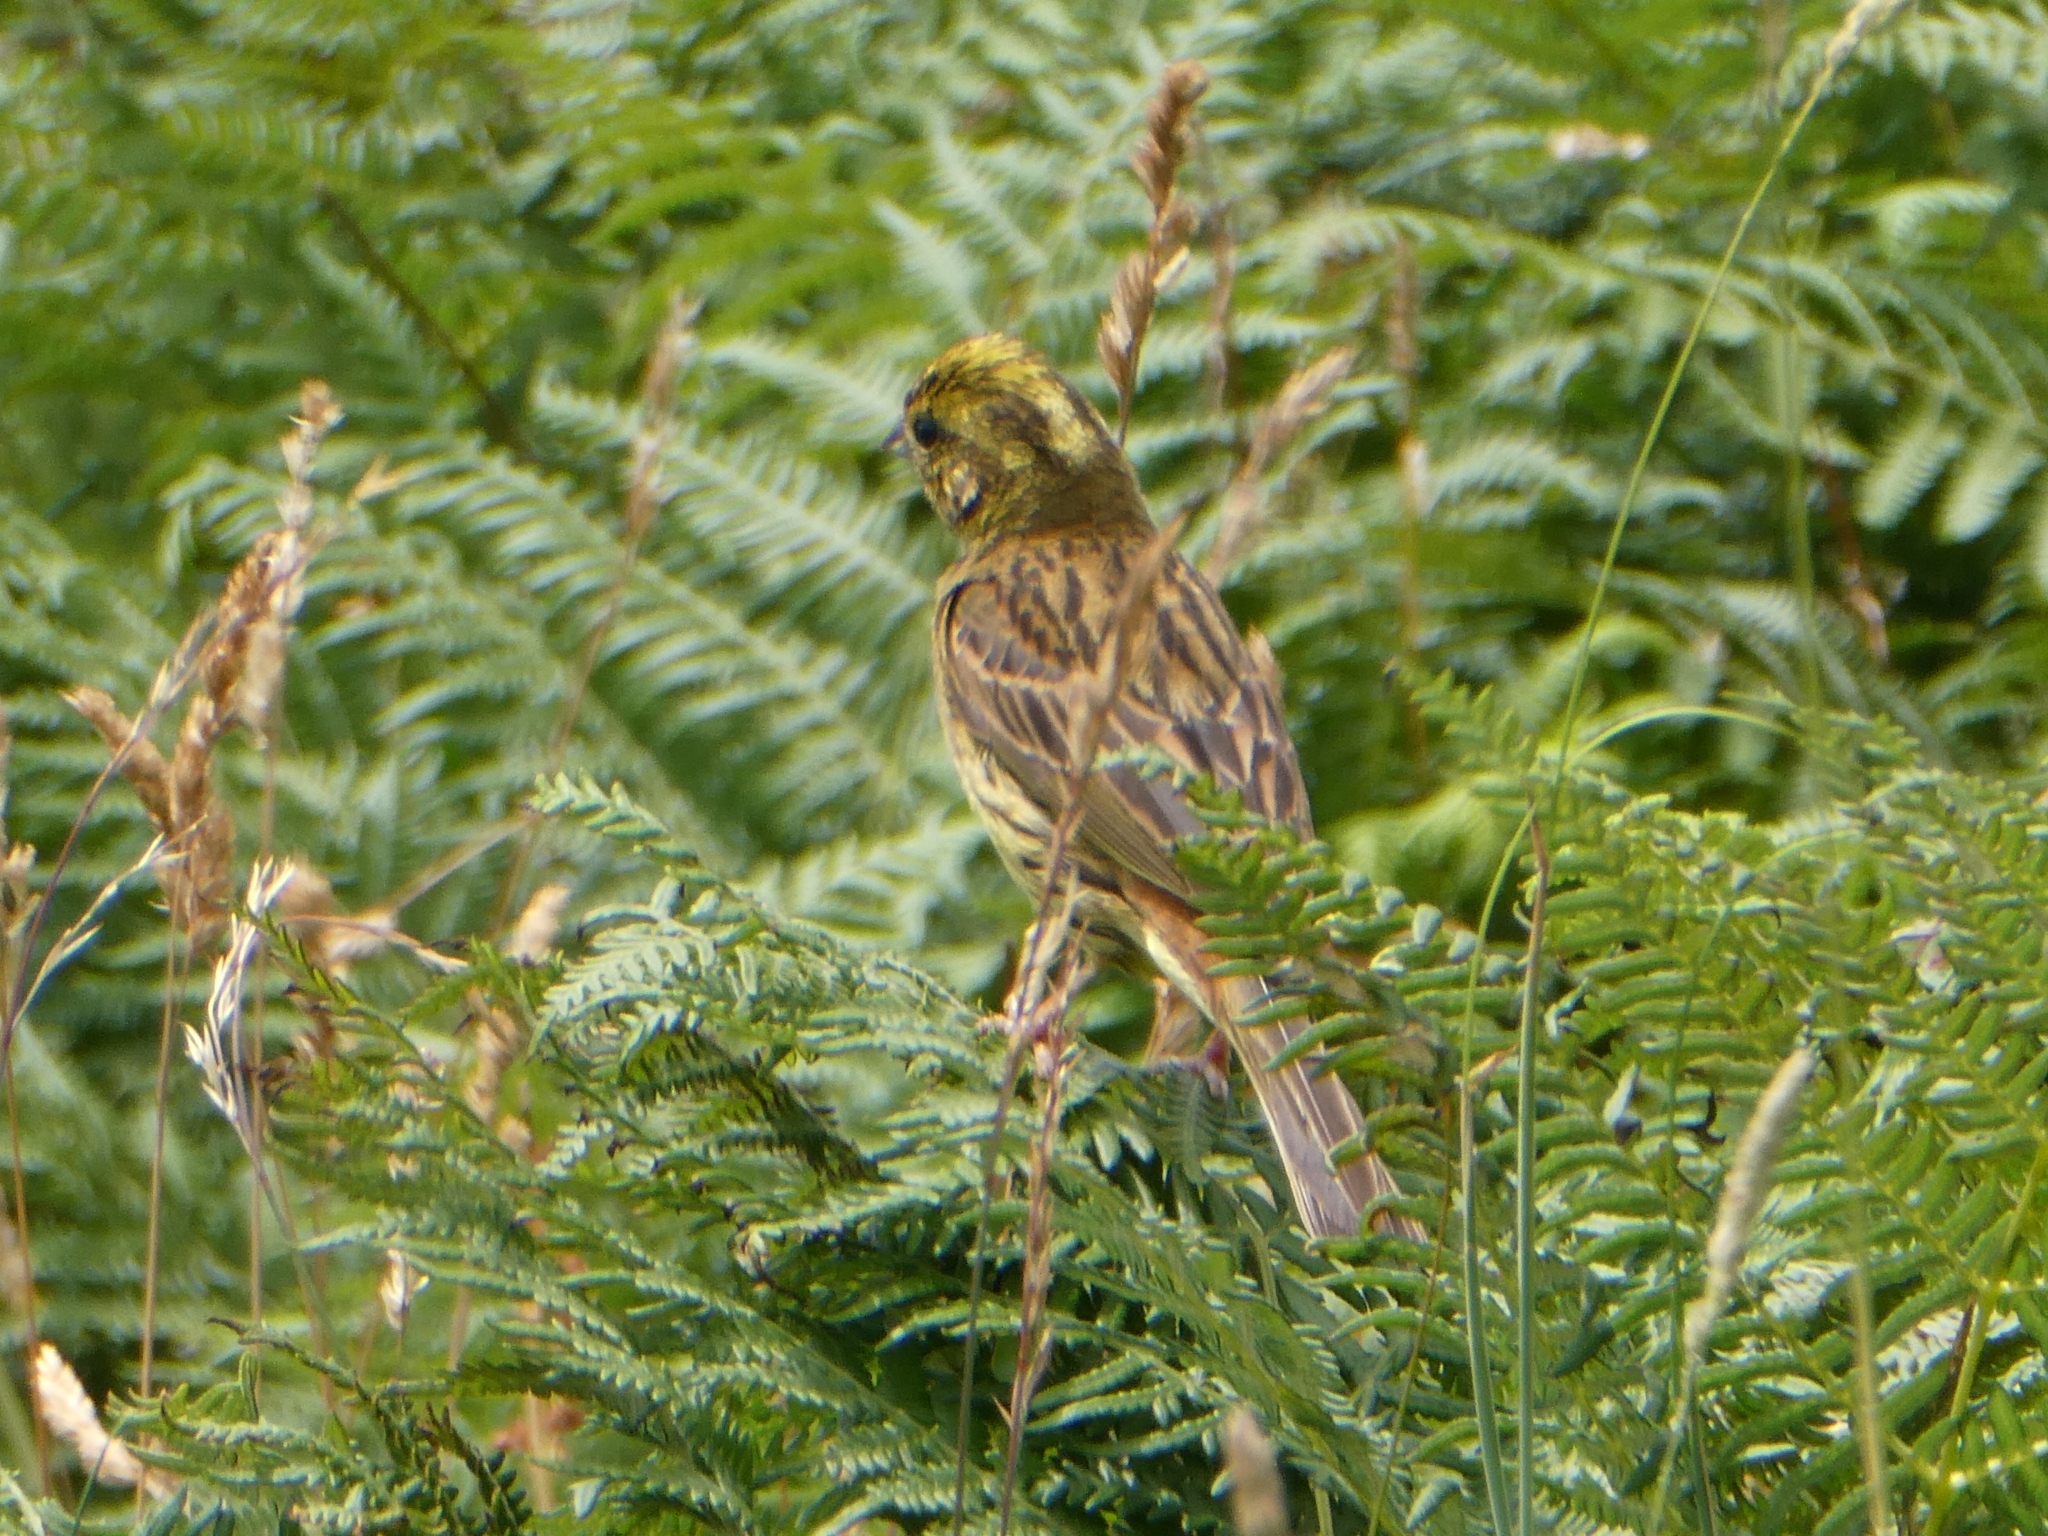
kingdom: Animalia
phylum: Chordata
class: Aves
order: Passeriformes
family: Emberizidae
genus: Emberiza
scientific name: Emberiza citrinella
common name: Yellowhammer
